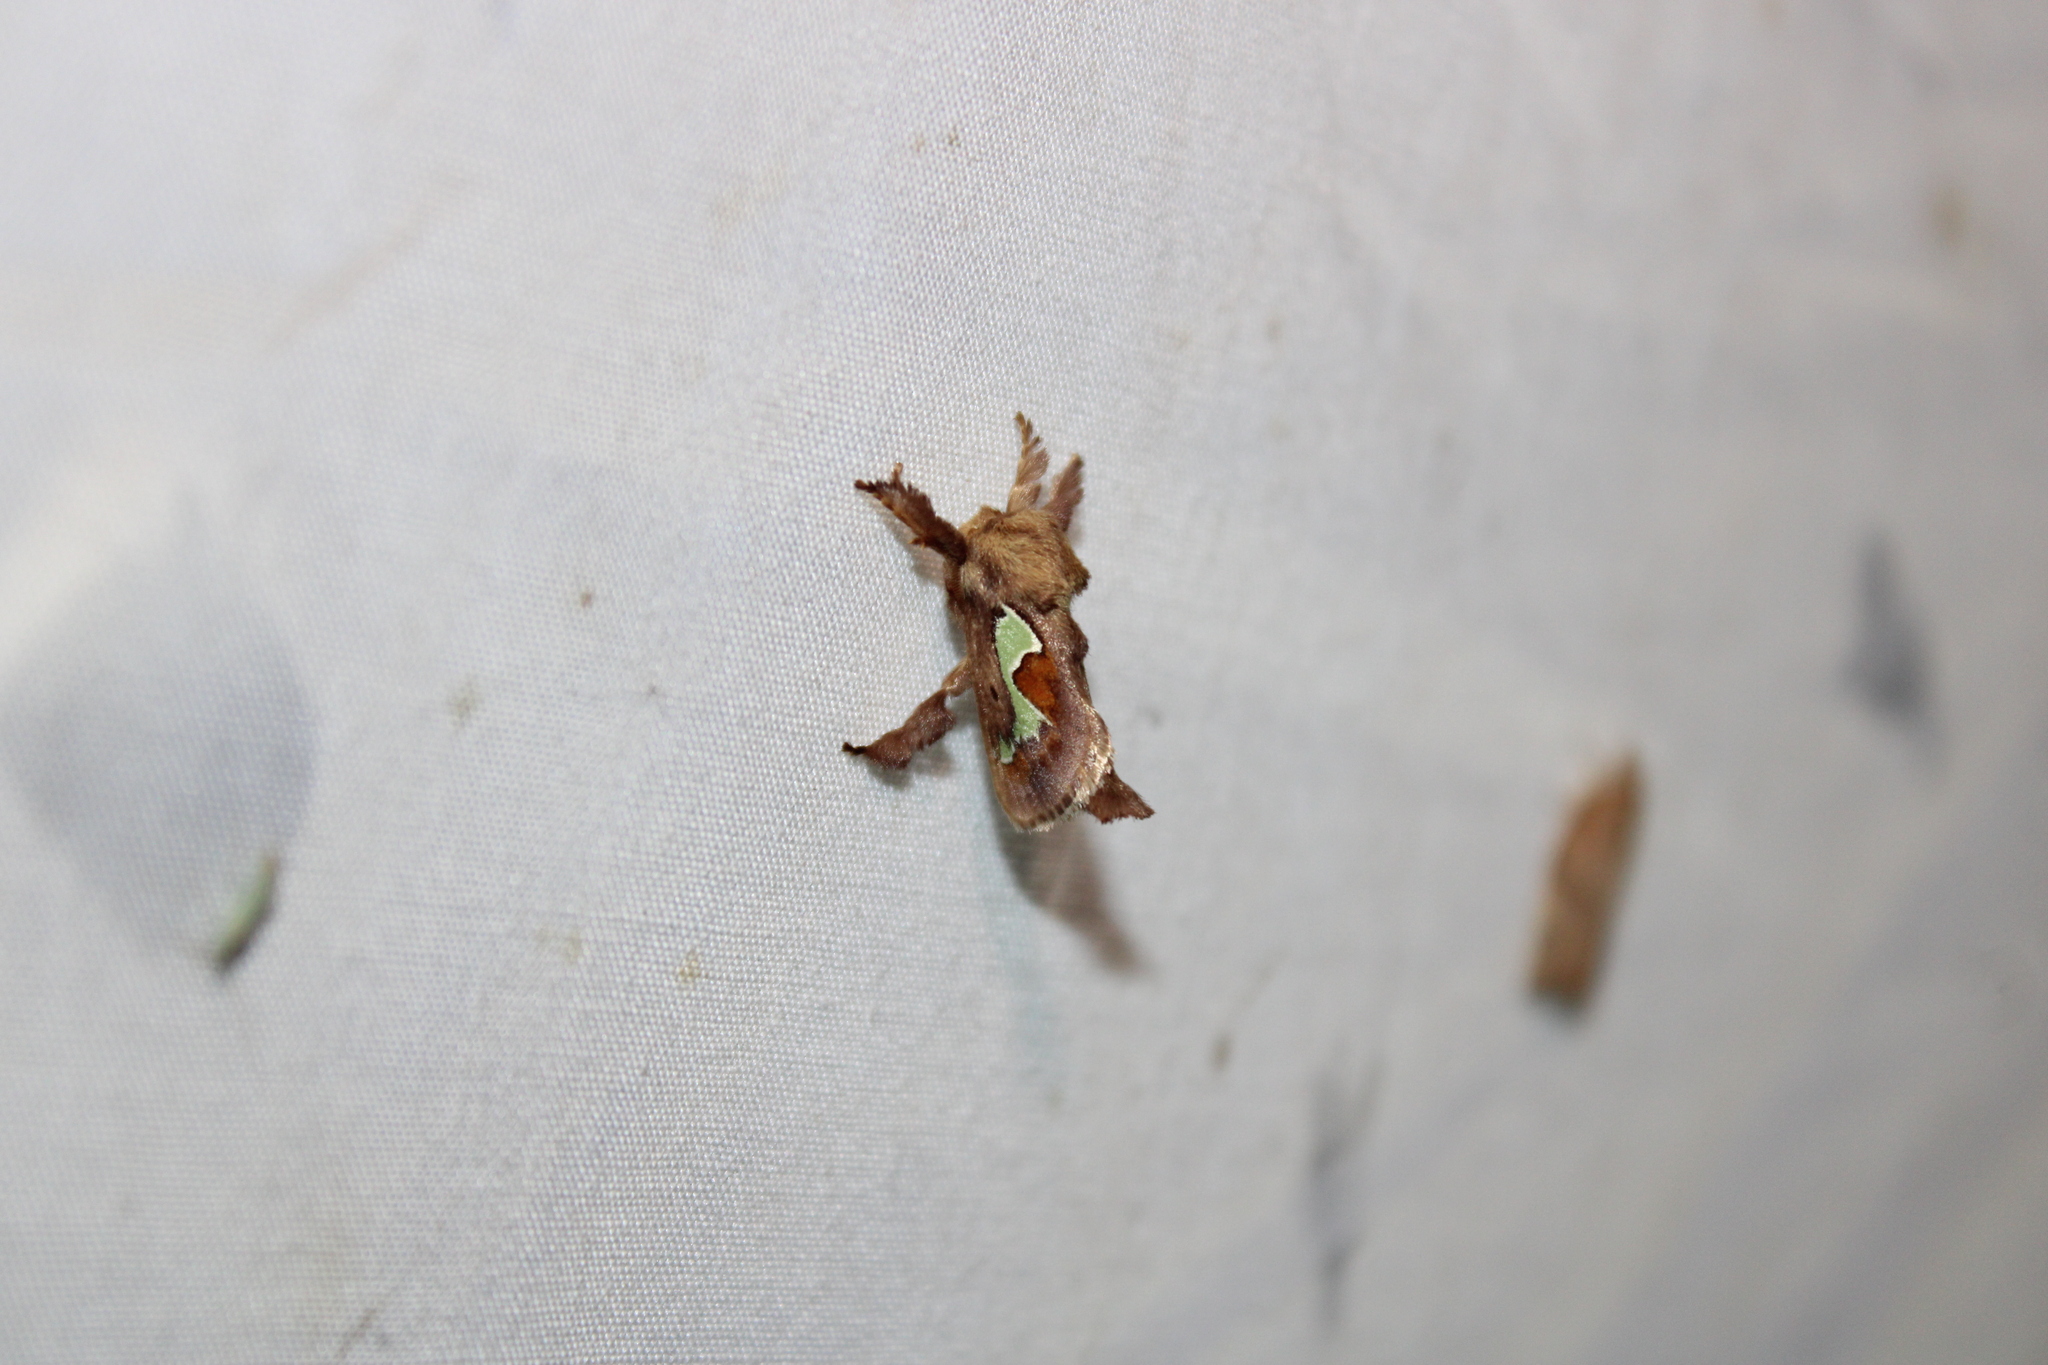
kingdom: Animalia
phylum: Arthropoda
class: Insecta
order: Lepidoptera
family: Limacodidae
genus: Euclea
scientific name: Euclea delphinii
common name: Spiny oak-slug moth
